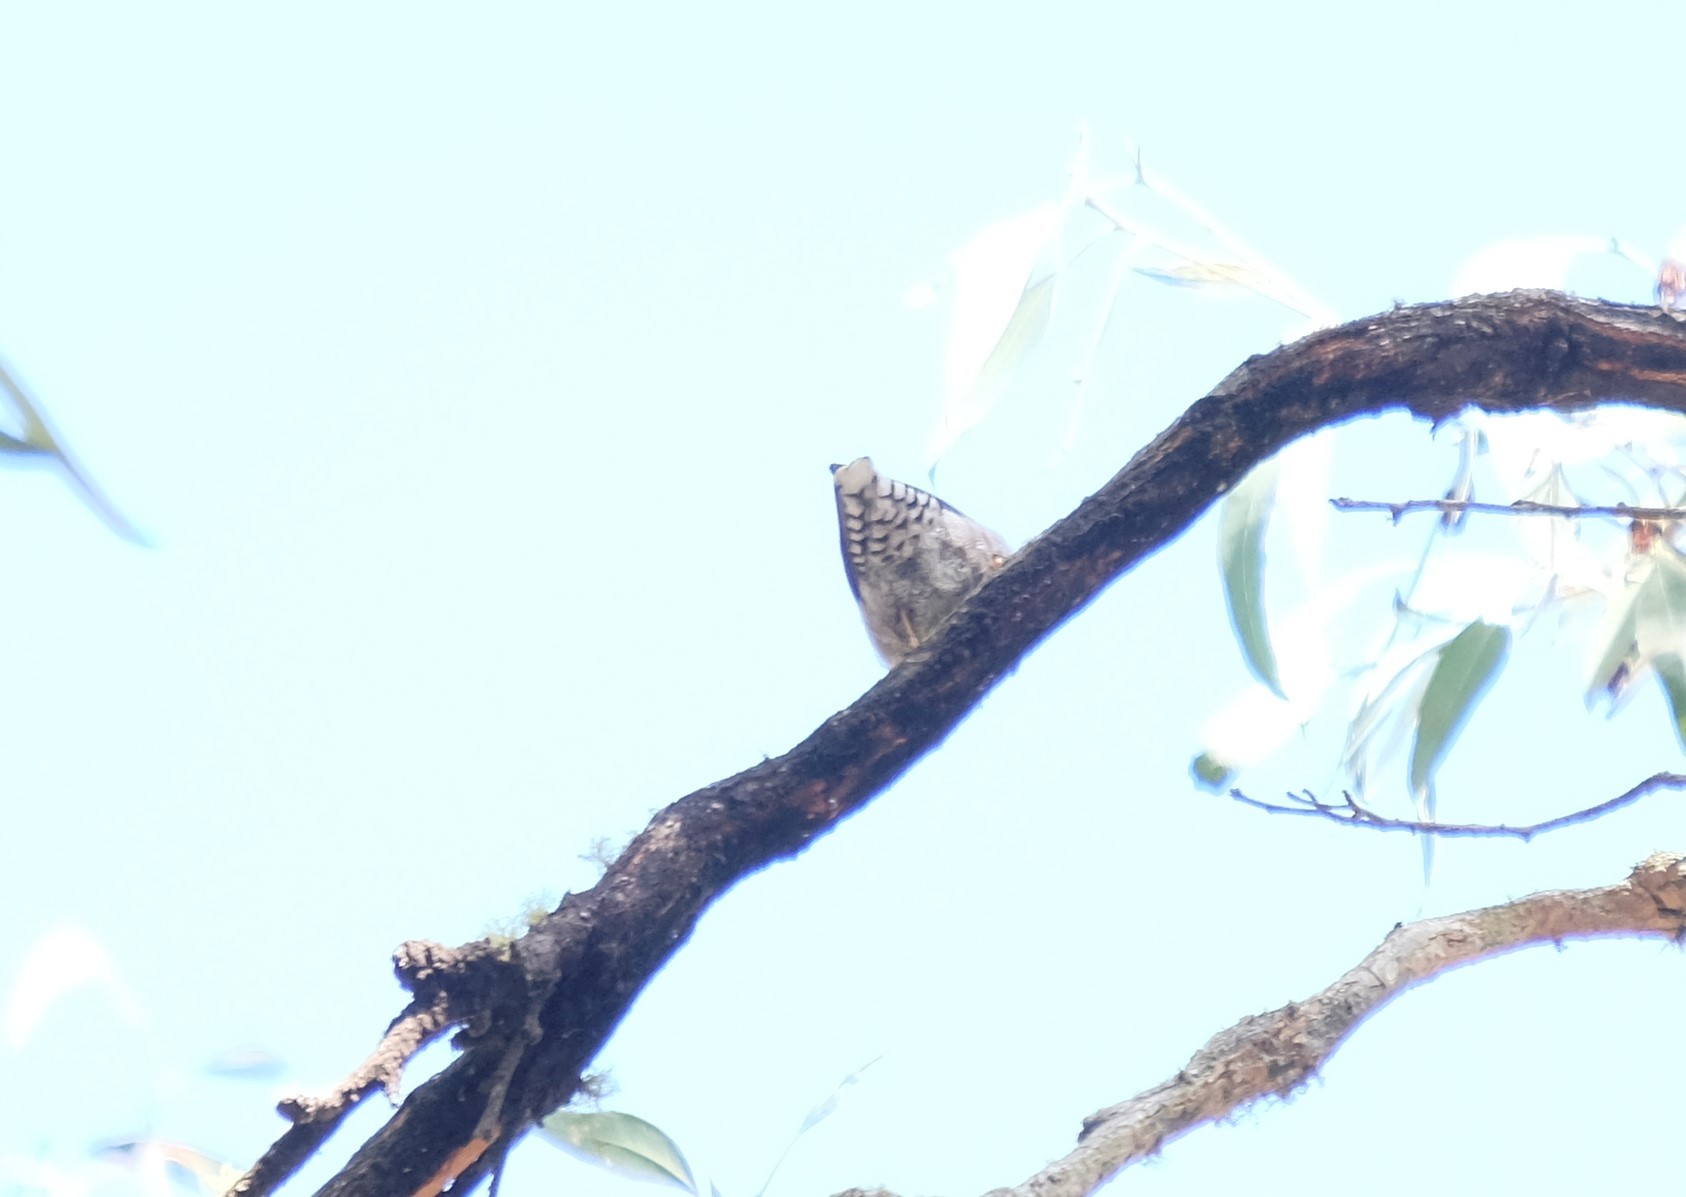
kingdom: Animalia
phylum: Chordata
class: Aves
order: Passeriformes
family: Neosittidae
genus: Daphoenositta
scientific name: Daphoenositta chrysoptera
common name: Varied sittella
